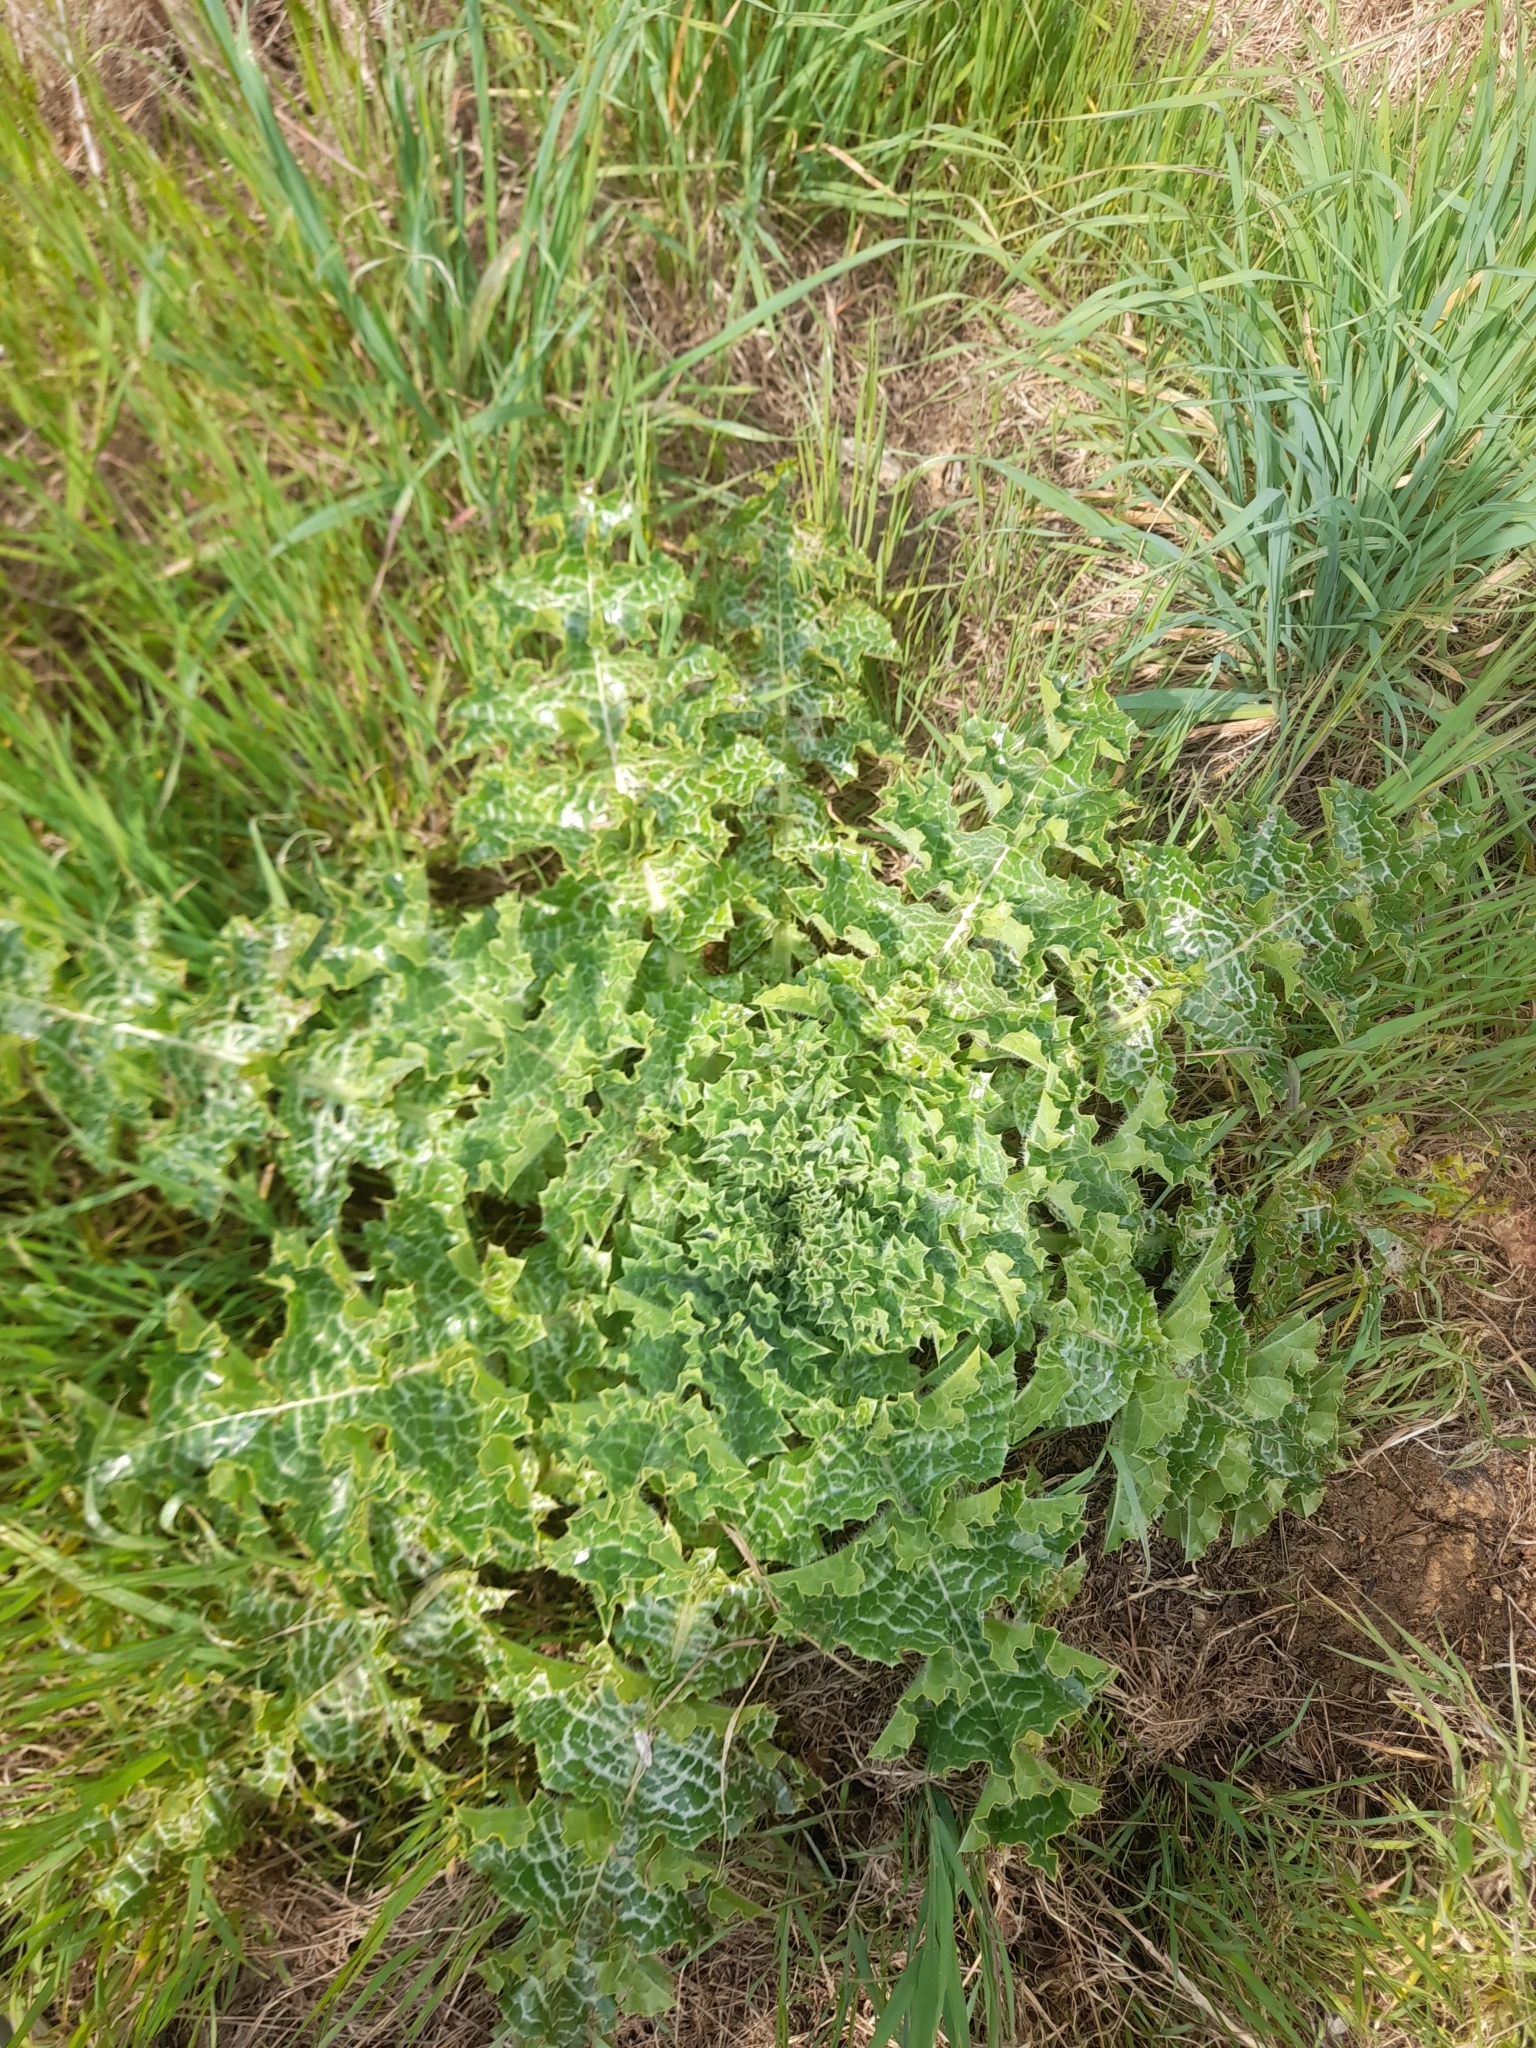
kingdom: Plantae
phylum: Tracheophyta
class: Magnoliopsida
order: Asterales
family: Asteraceae
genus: Silybum
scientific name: Silybum marianum
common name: Milk thistle
